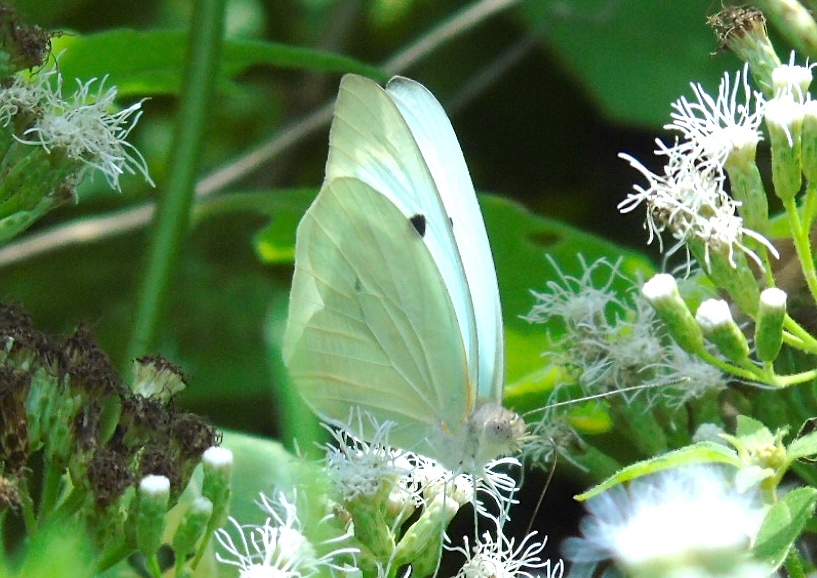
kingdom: Animalia
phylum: Arthropoda
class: Insecta
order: Lepidoptera
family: Pieridae
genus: Ganyra
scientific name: Ganyra josephina
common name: Giant white
